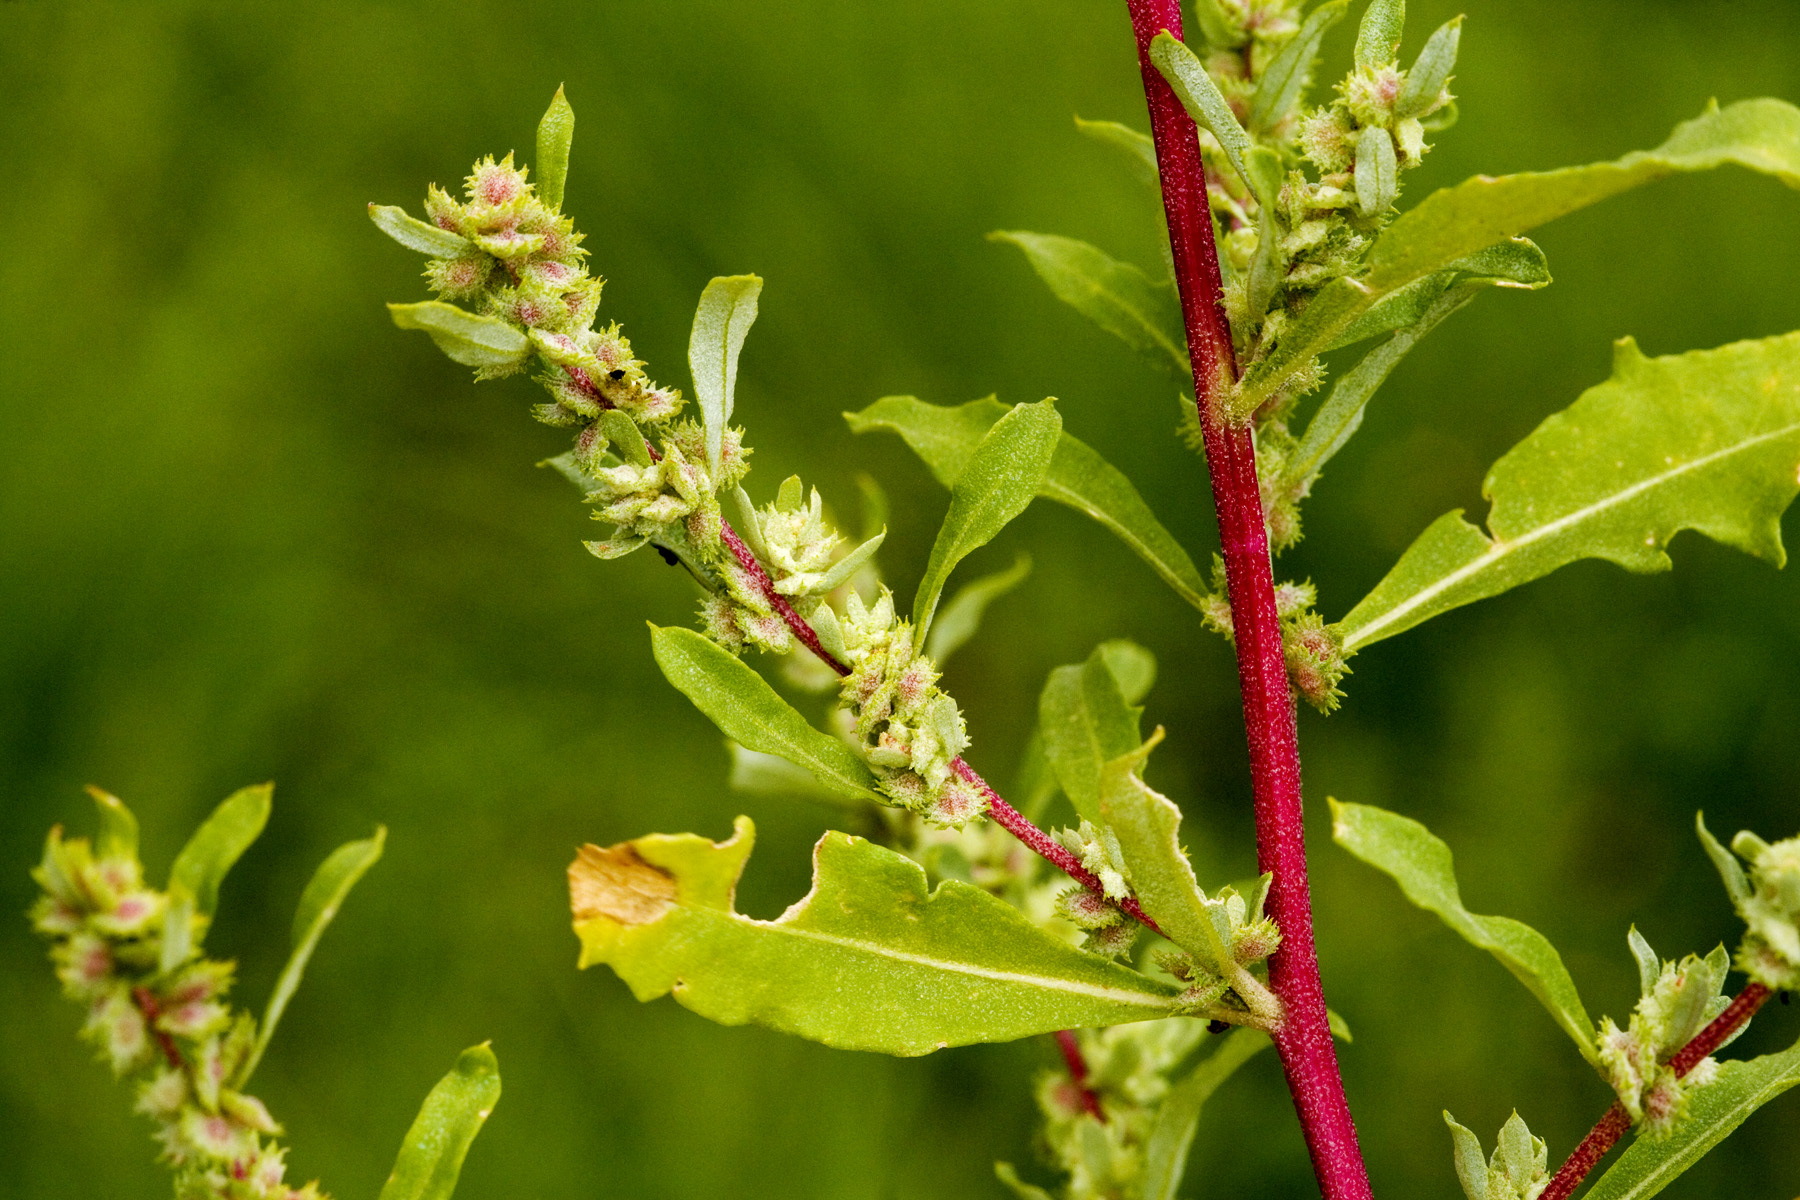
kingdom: Plantae
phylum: Tracheophyta
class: Magnoliopsida
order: Caryophyllales
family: Amaranthaceae
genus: Atriplex
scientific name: Atriplex elegans
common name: Wheelscale orach
